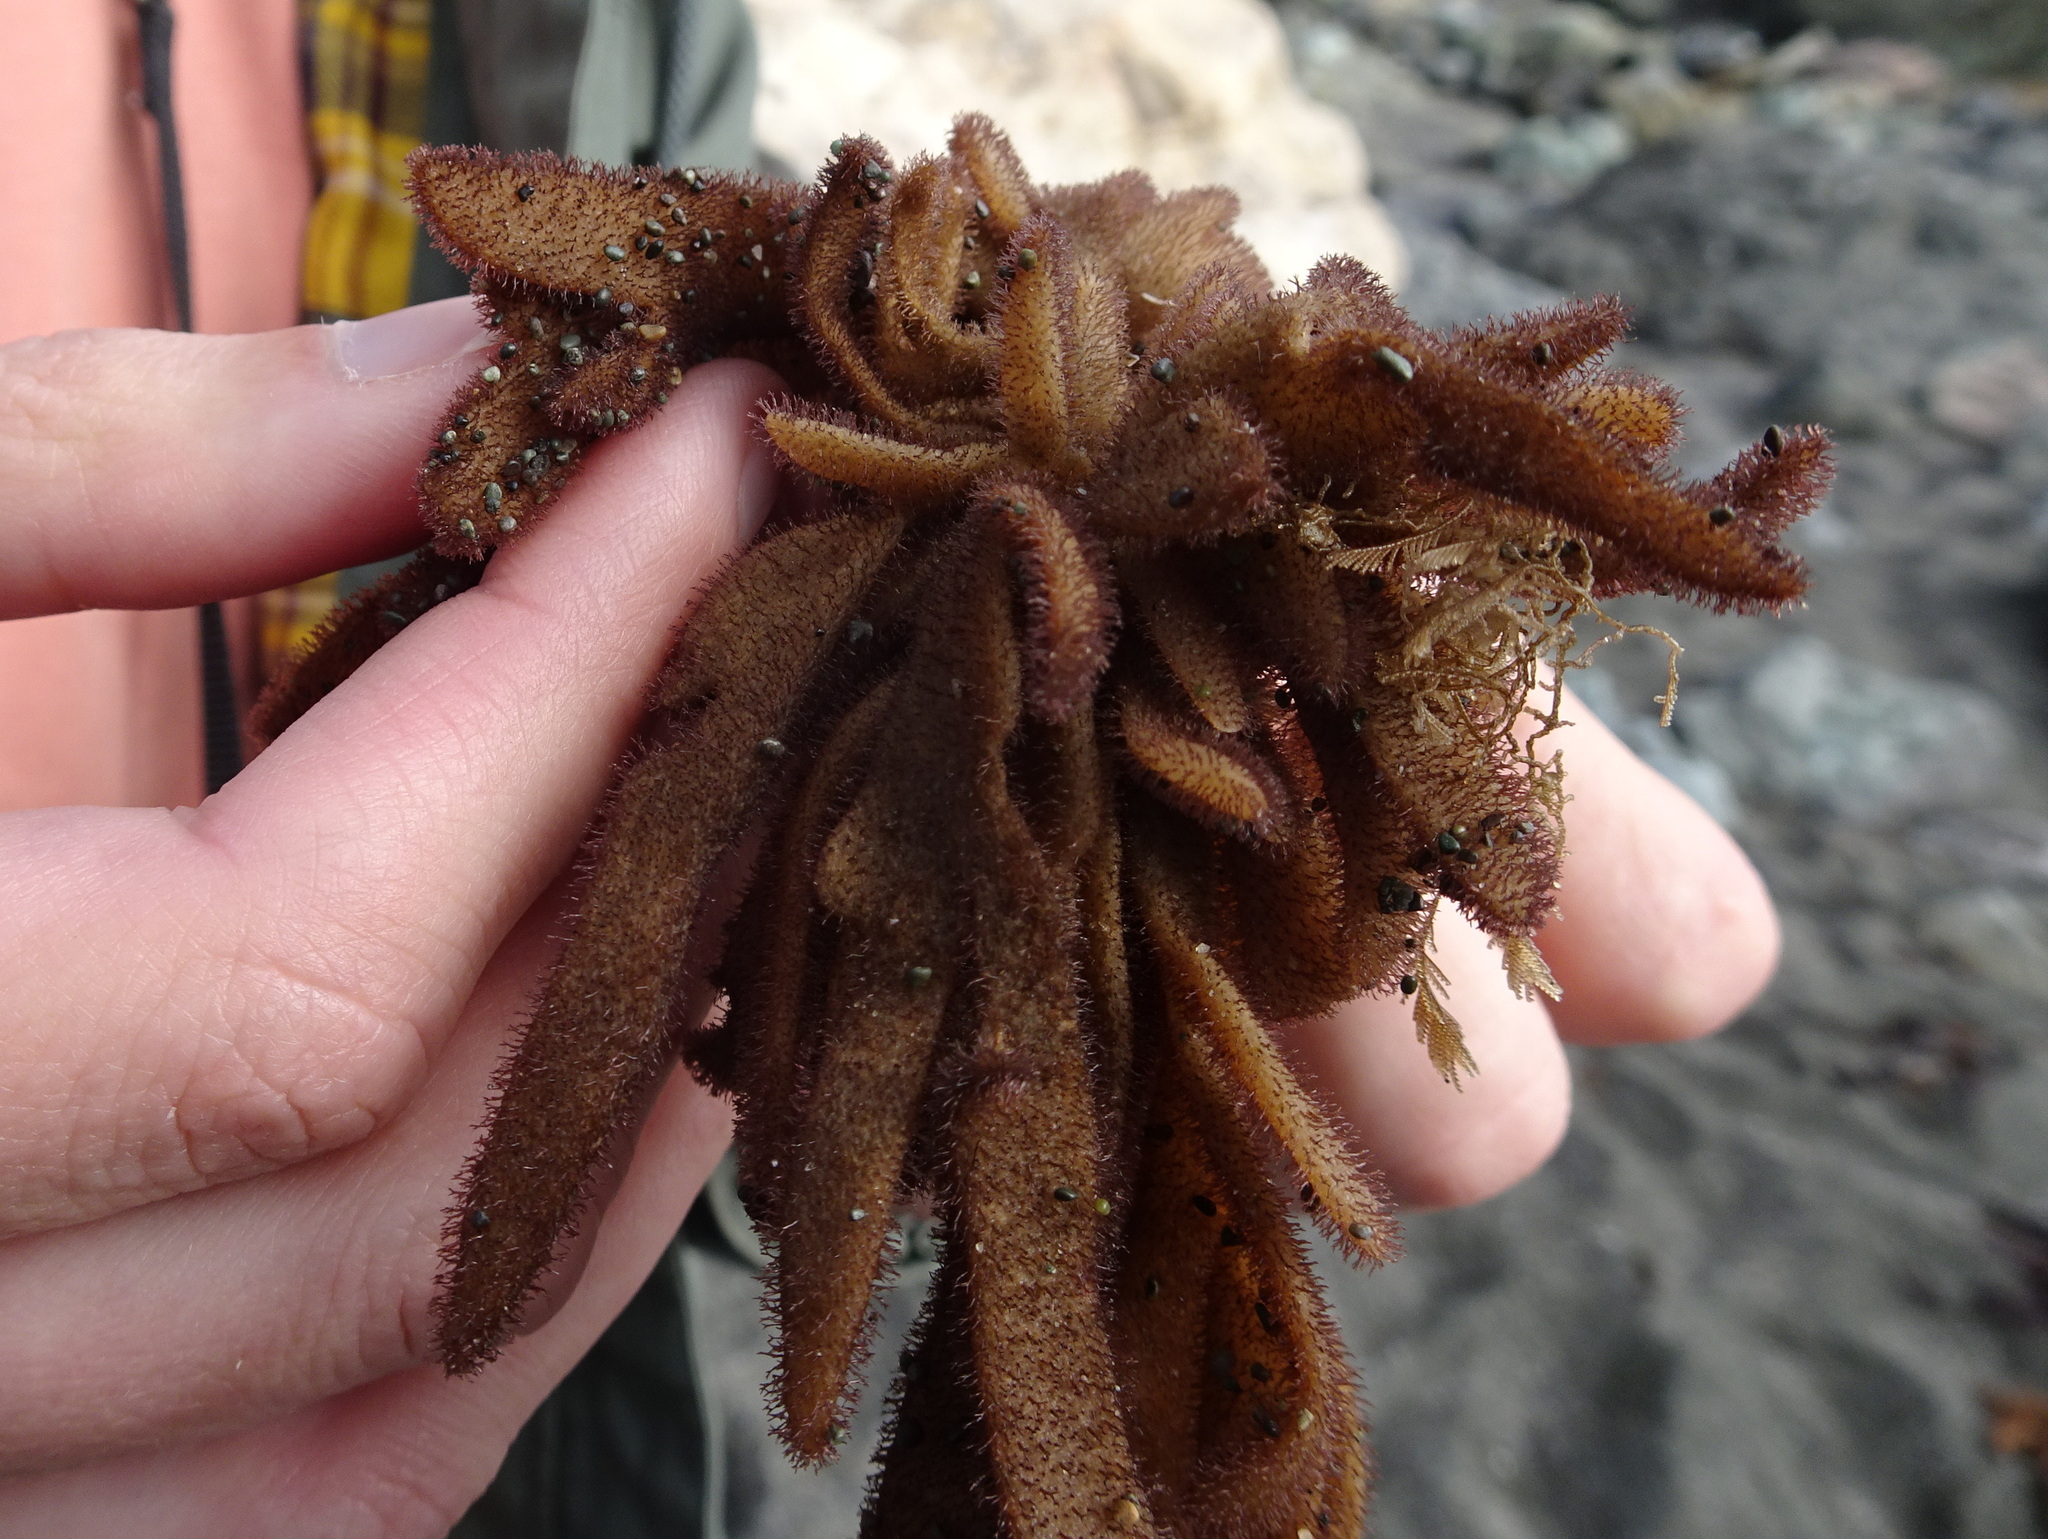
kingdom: Animalia
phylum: Bryozoa
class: Gymnolaemata
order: Ctenostomatida
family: Flustrellidridae
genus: Flustrellidra
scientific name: Flustrellidra corniculata
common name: Spiny leather bryozoan
